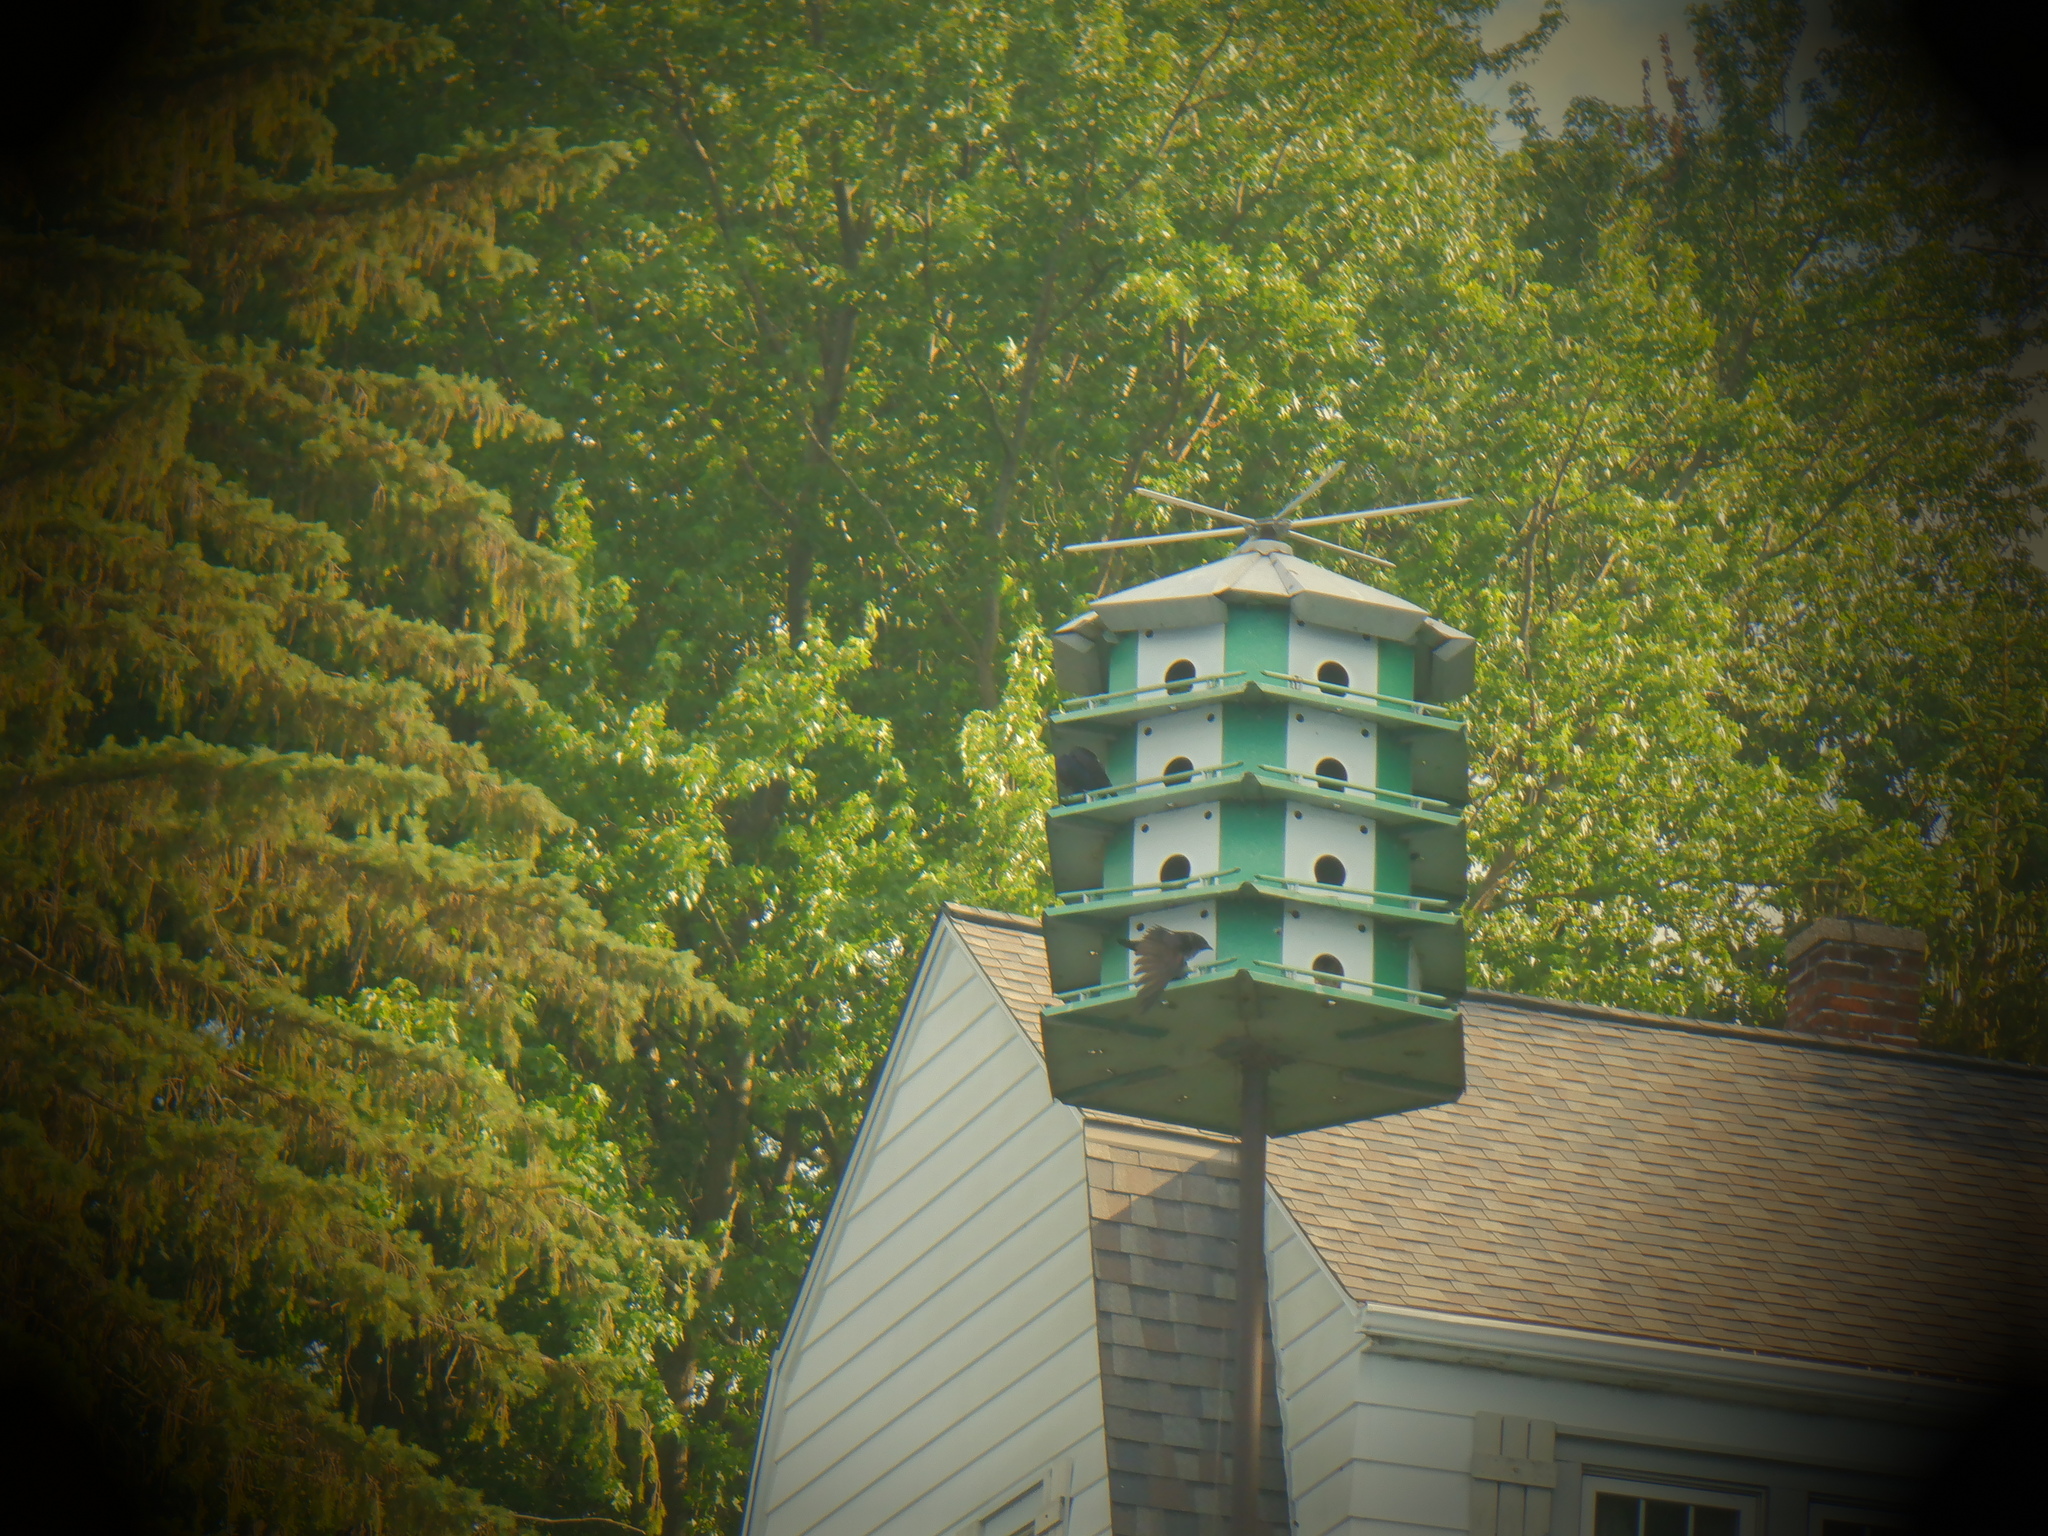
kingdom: Animalia
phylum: Chordata
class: Aves
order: Passeriformes
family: Hirundinidae
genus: Progne
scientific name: Progne subis
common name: Purple martin
